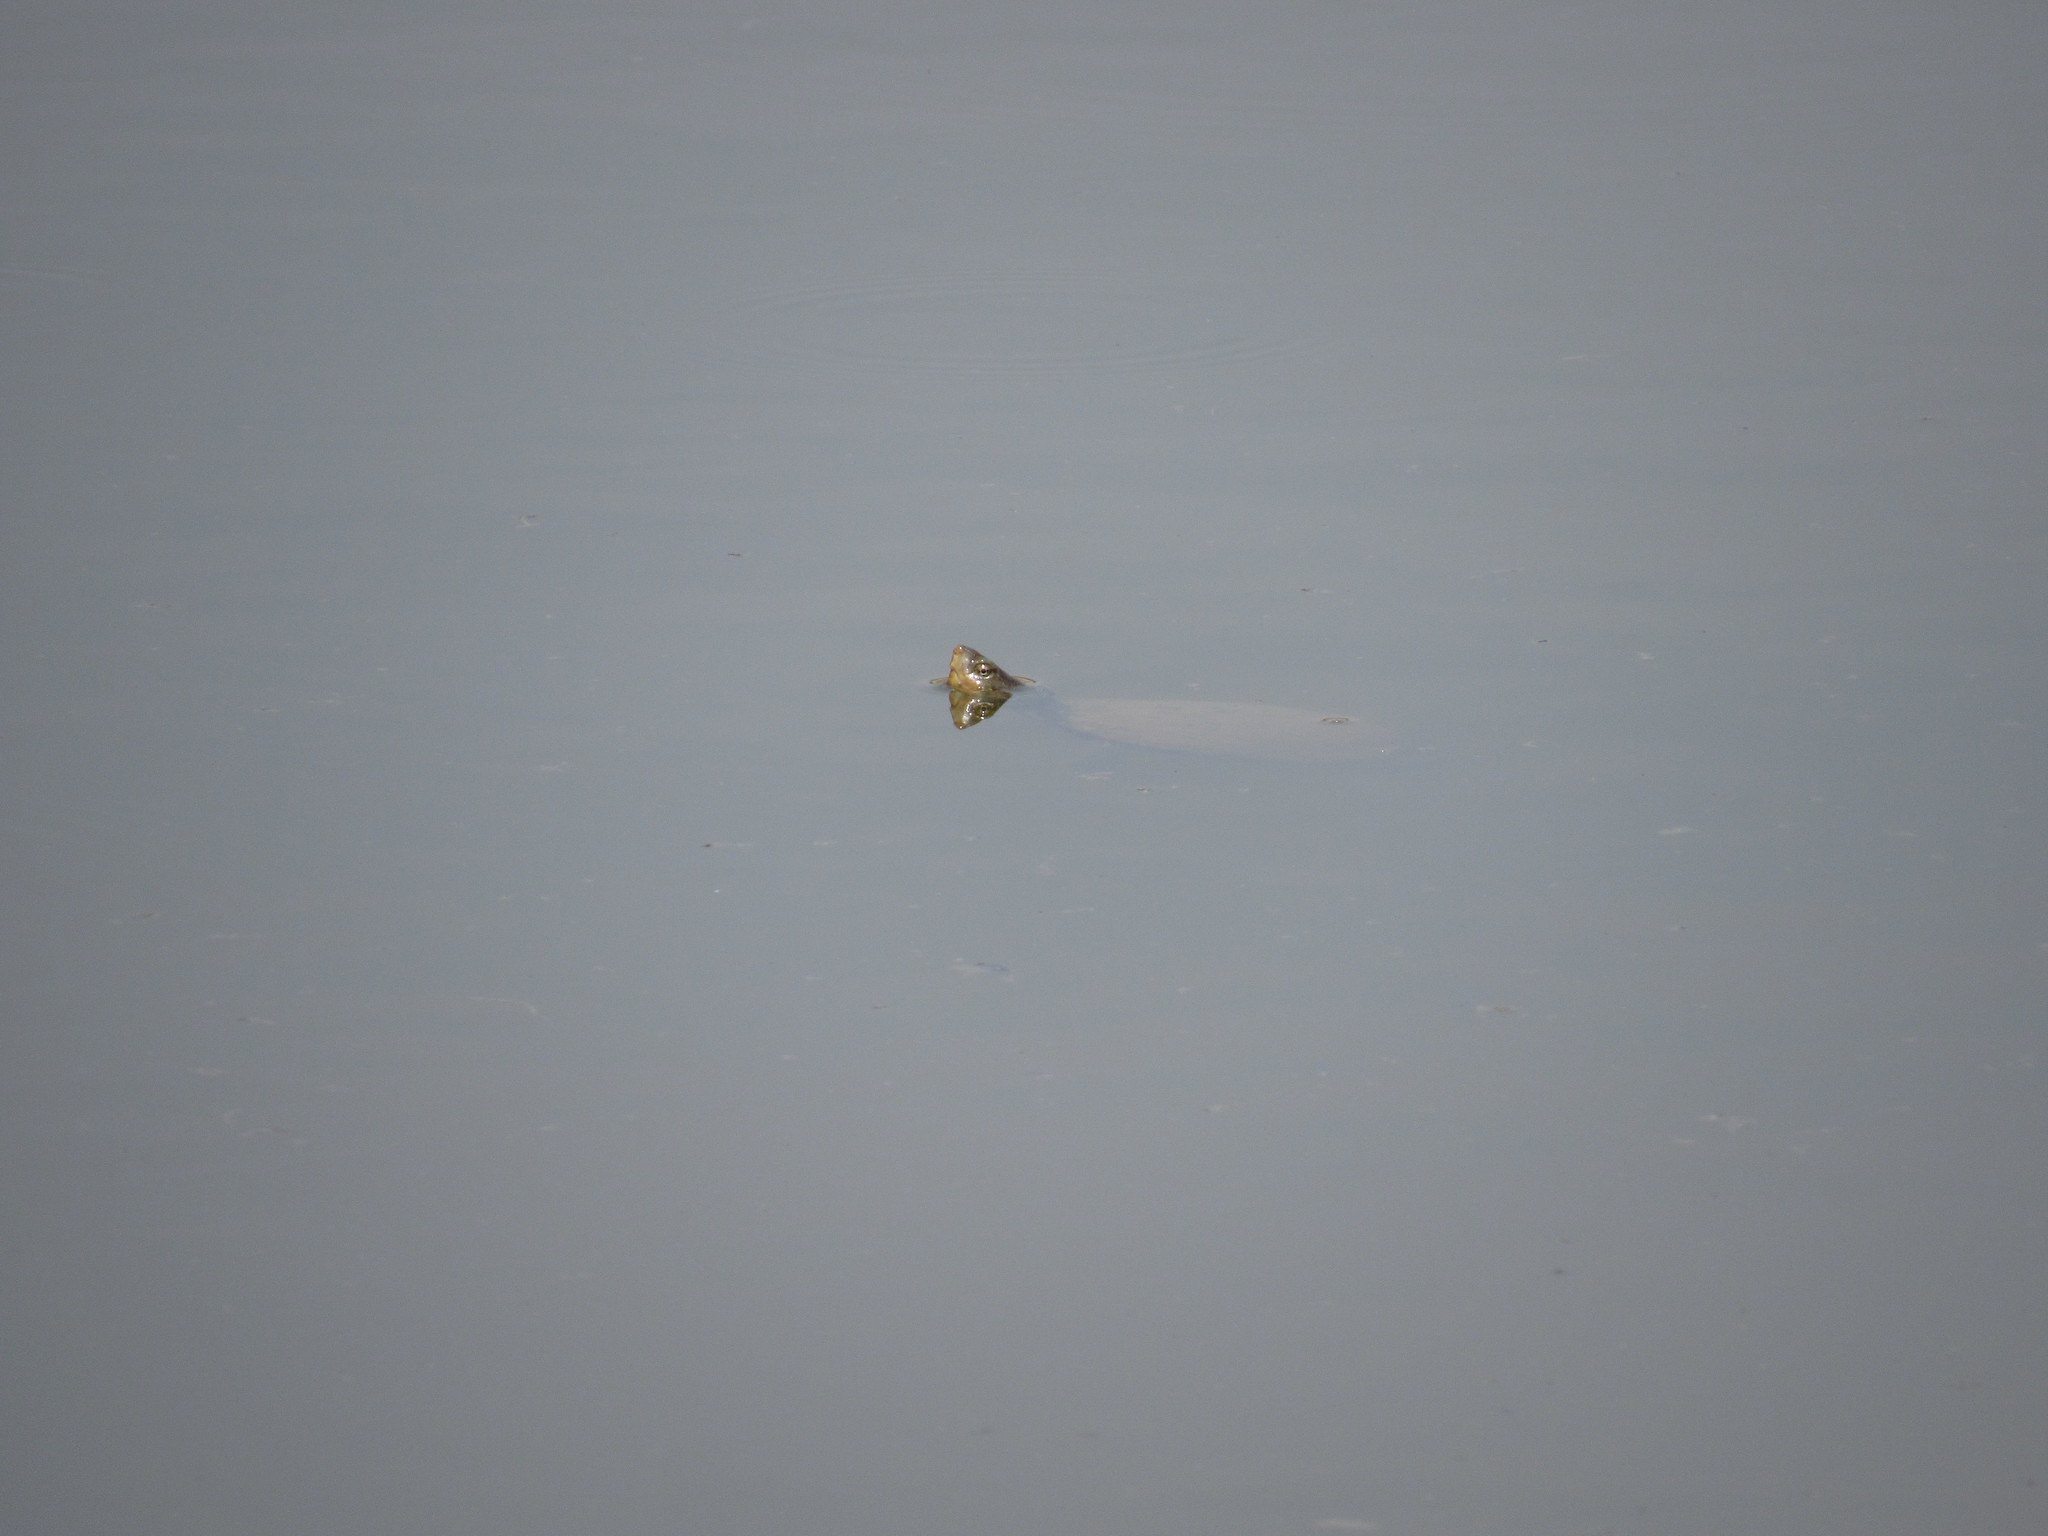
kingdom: Animalia
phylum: Chordata
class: Testudines
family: Kinosternidae
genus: Kinosternon
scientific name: Kinosternon integrum
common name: Mexican mud turtle
